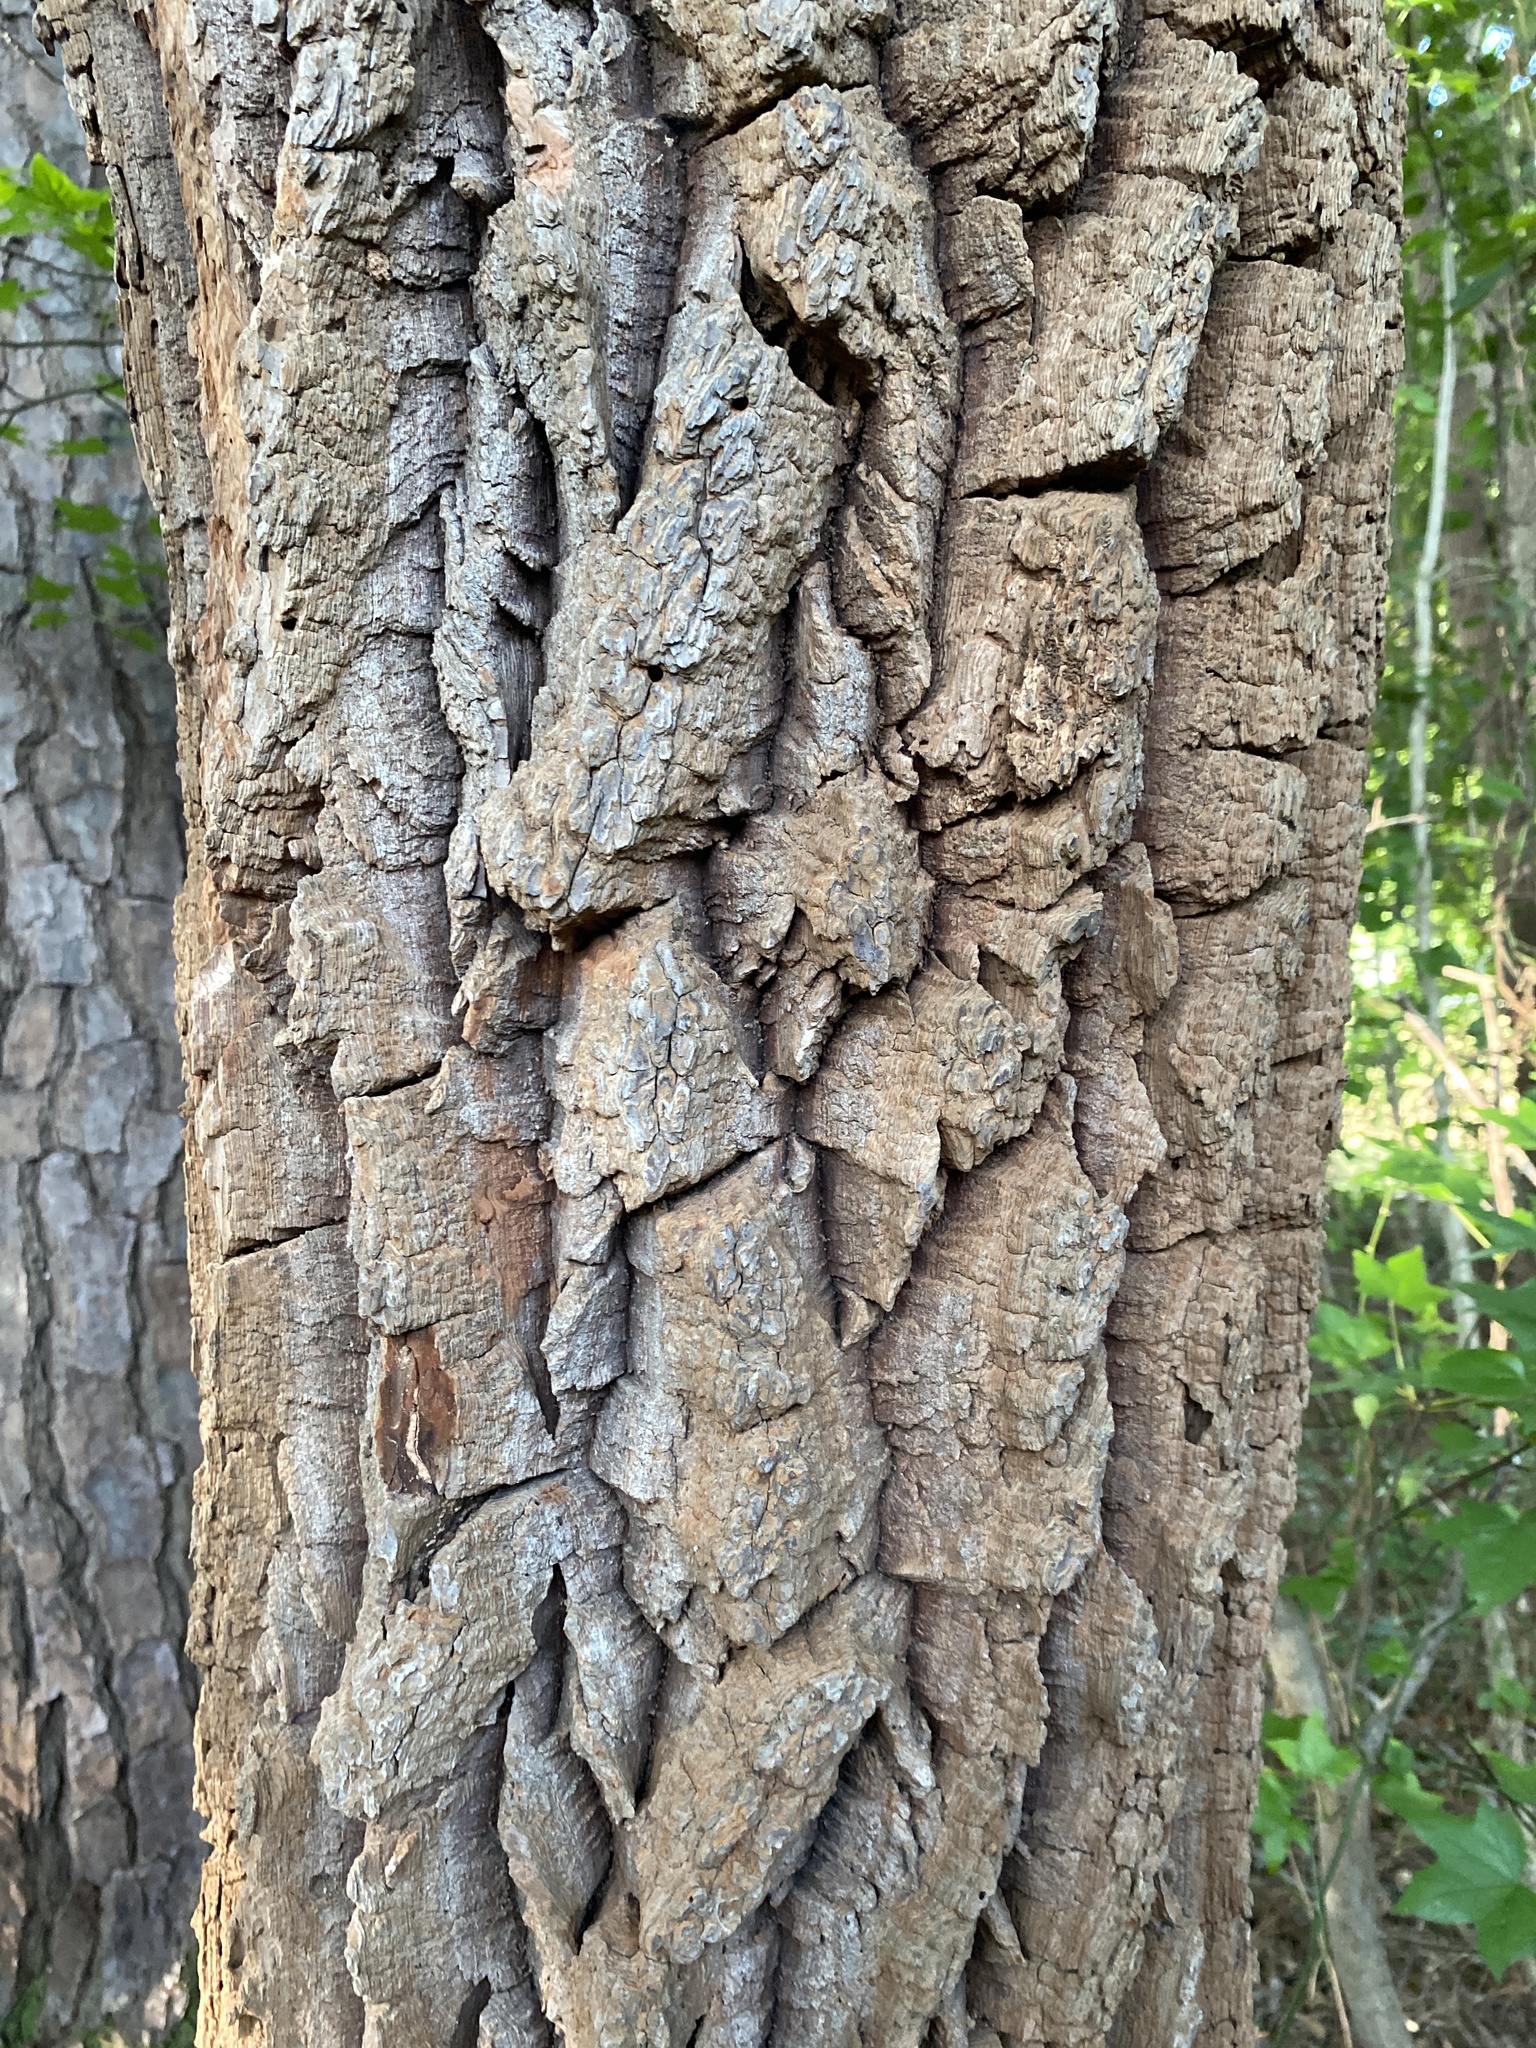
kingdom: Plantae
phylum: Tracheophyta
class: Magnoliopsida
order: Ericales
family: Ericaceae
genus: Oxydendrum
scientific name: Oxydendrum arboreum
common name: Sourwood
